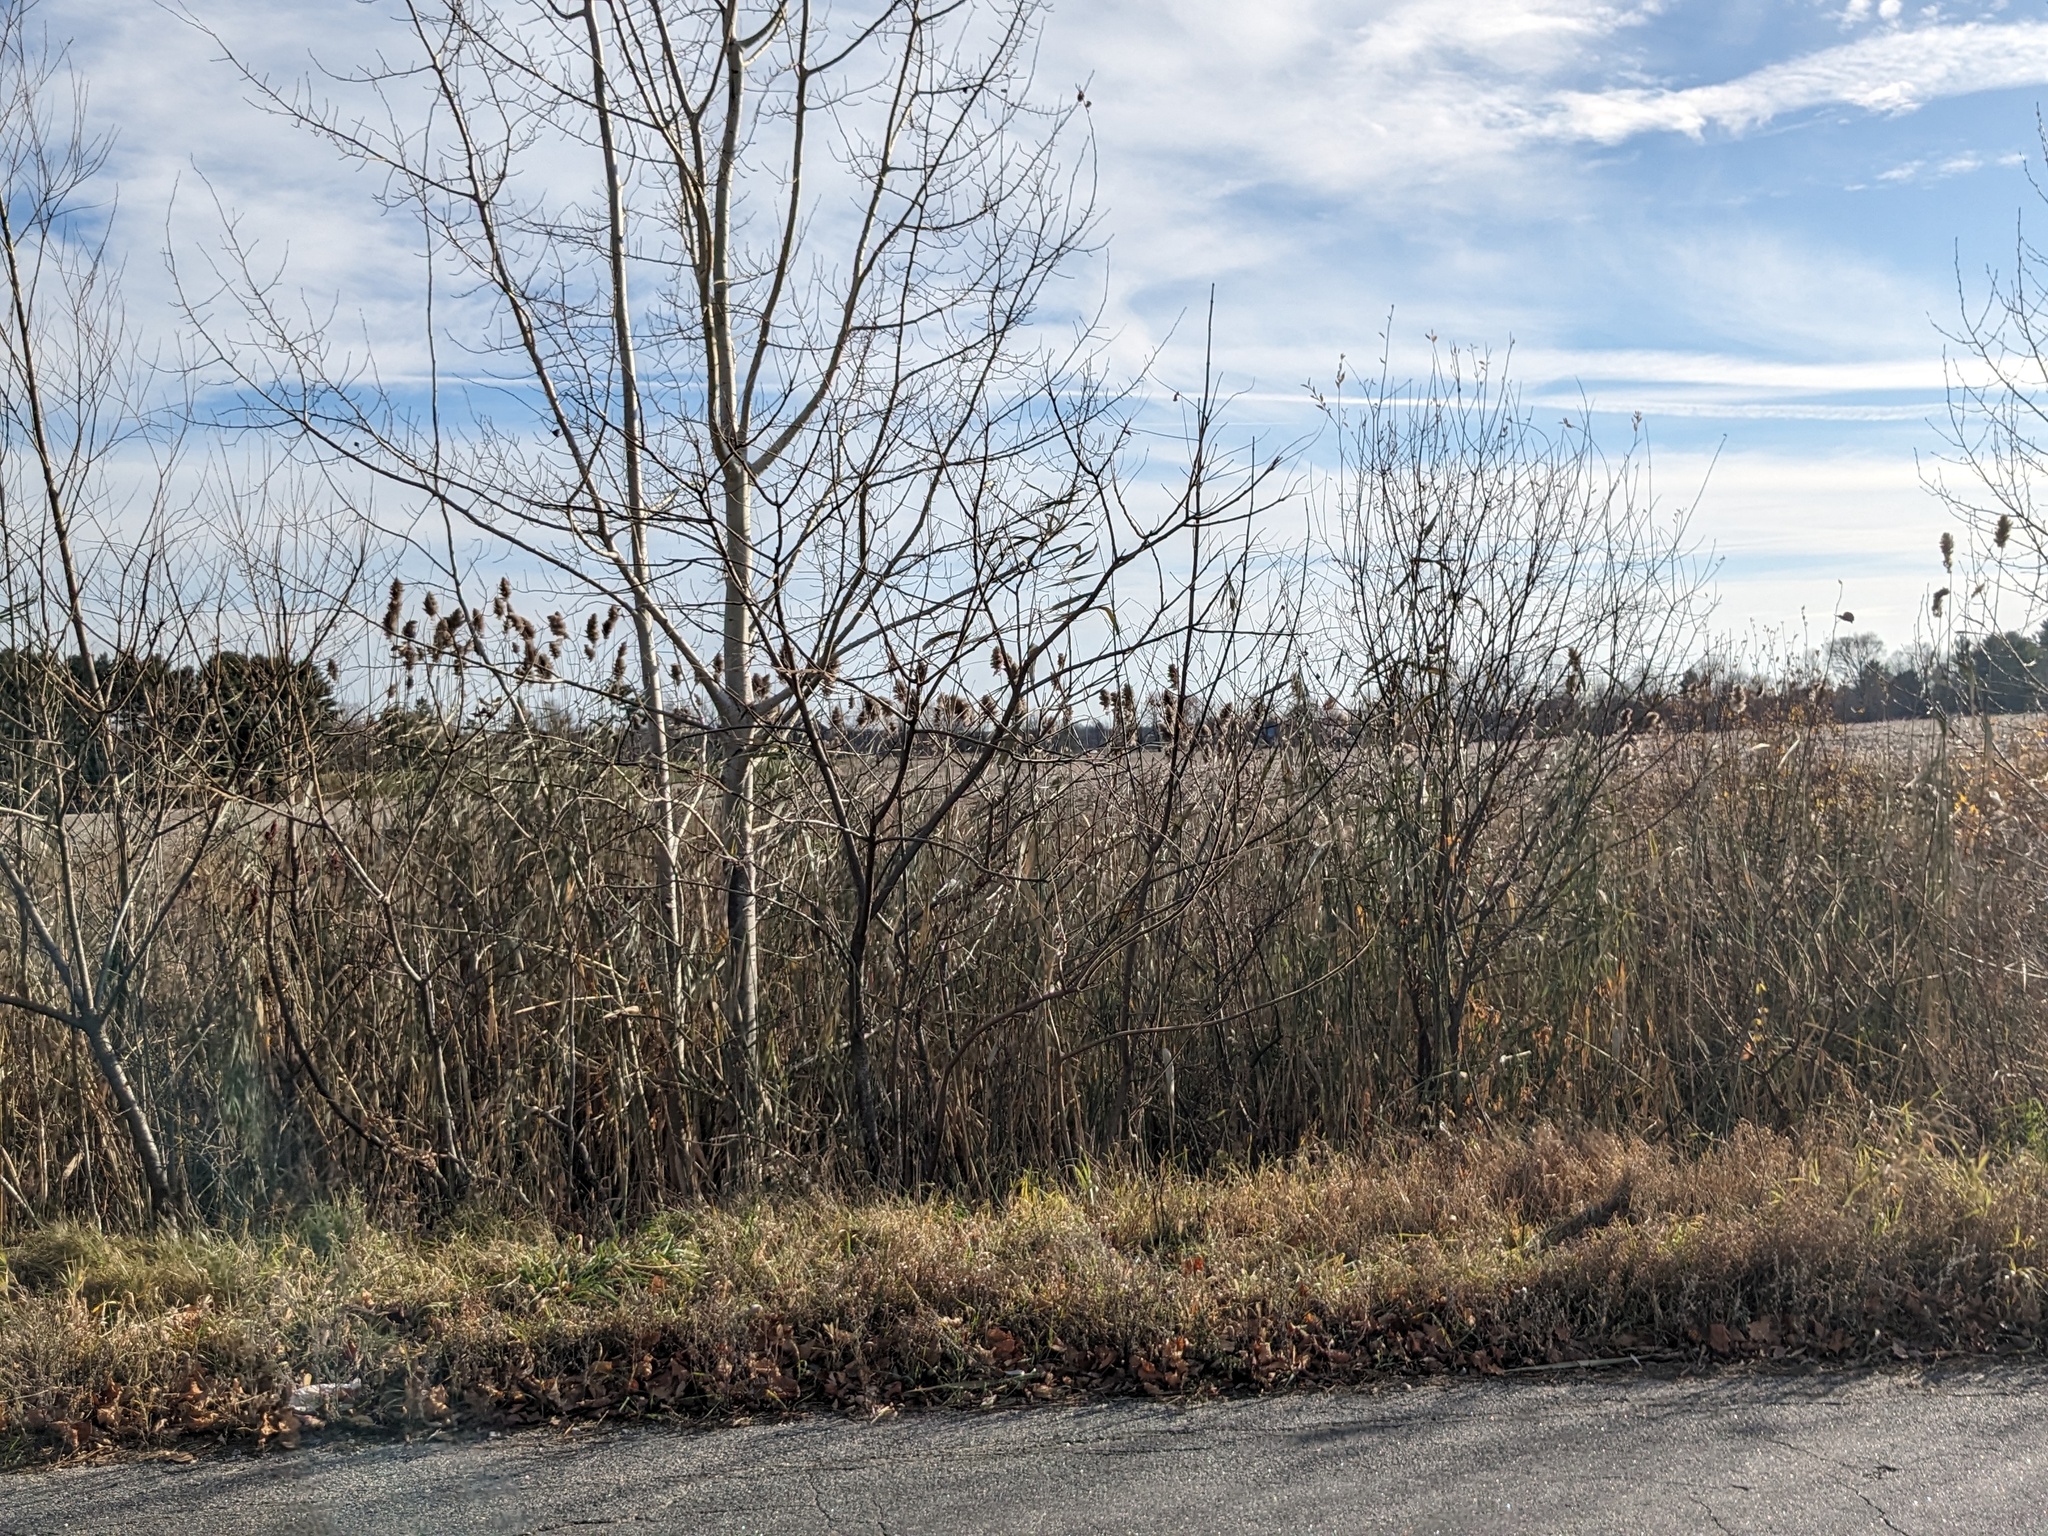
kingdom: Plantae
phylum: Tracheophyta
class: Liliopsida
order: Poales
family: Poaceae
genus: Phragmites
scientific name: Phragmites australis
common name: Common reed
